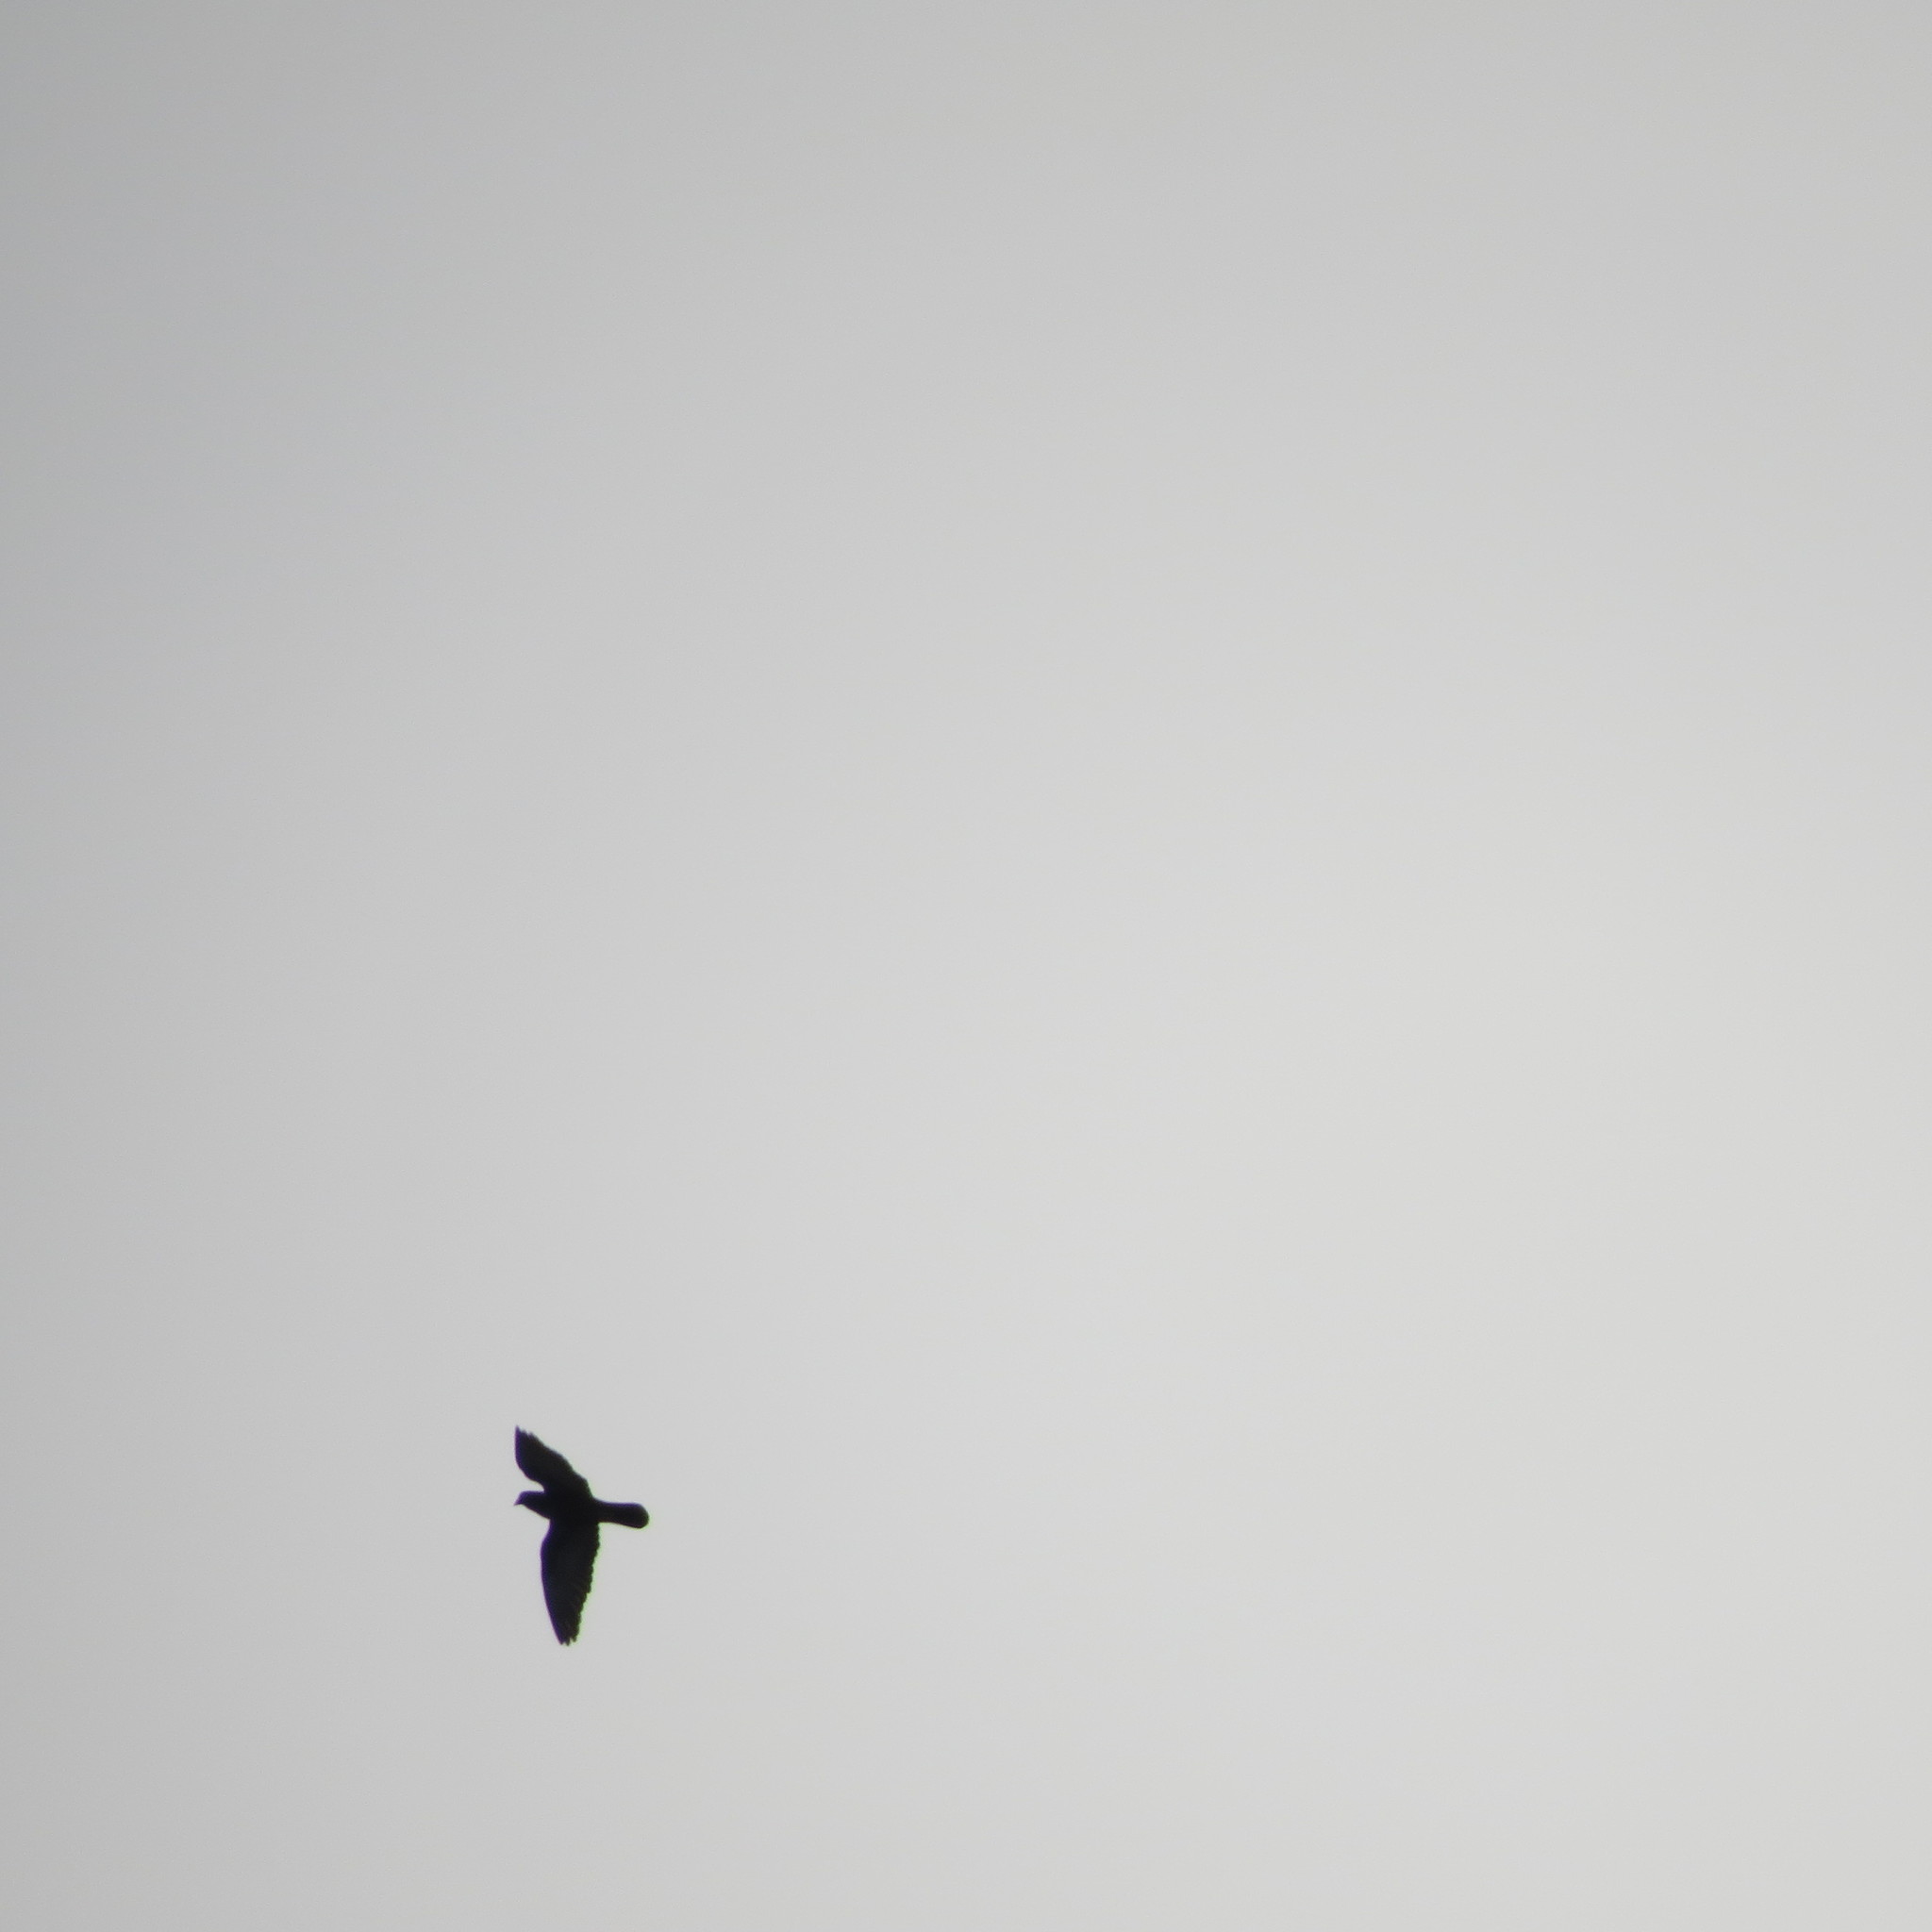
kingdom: Animalia
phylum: Chordata
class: Aves
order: Columbiformes
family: Columbidae
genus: Columba
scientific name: Columba livia
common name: Rock pigeon
